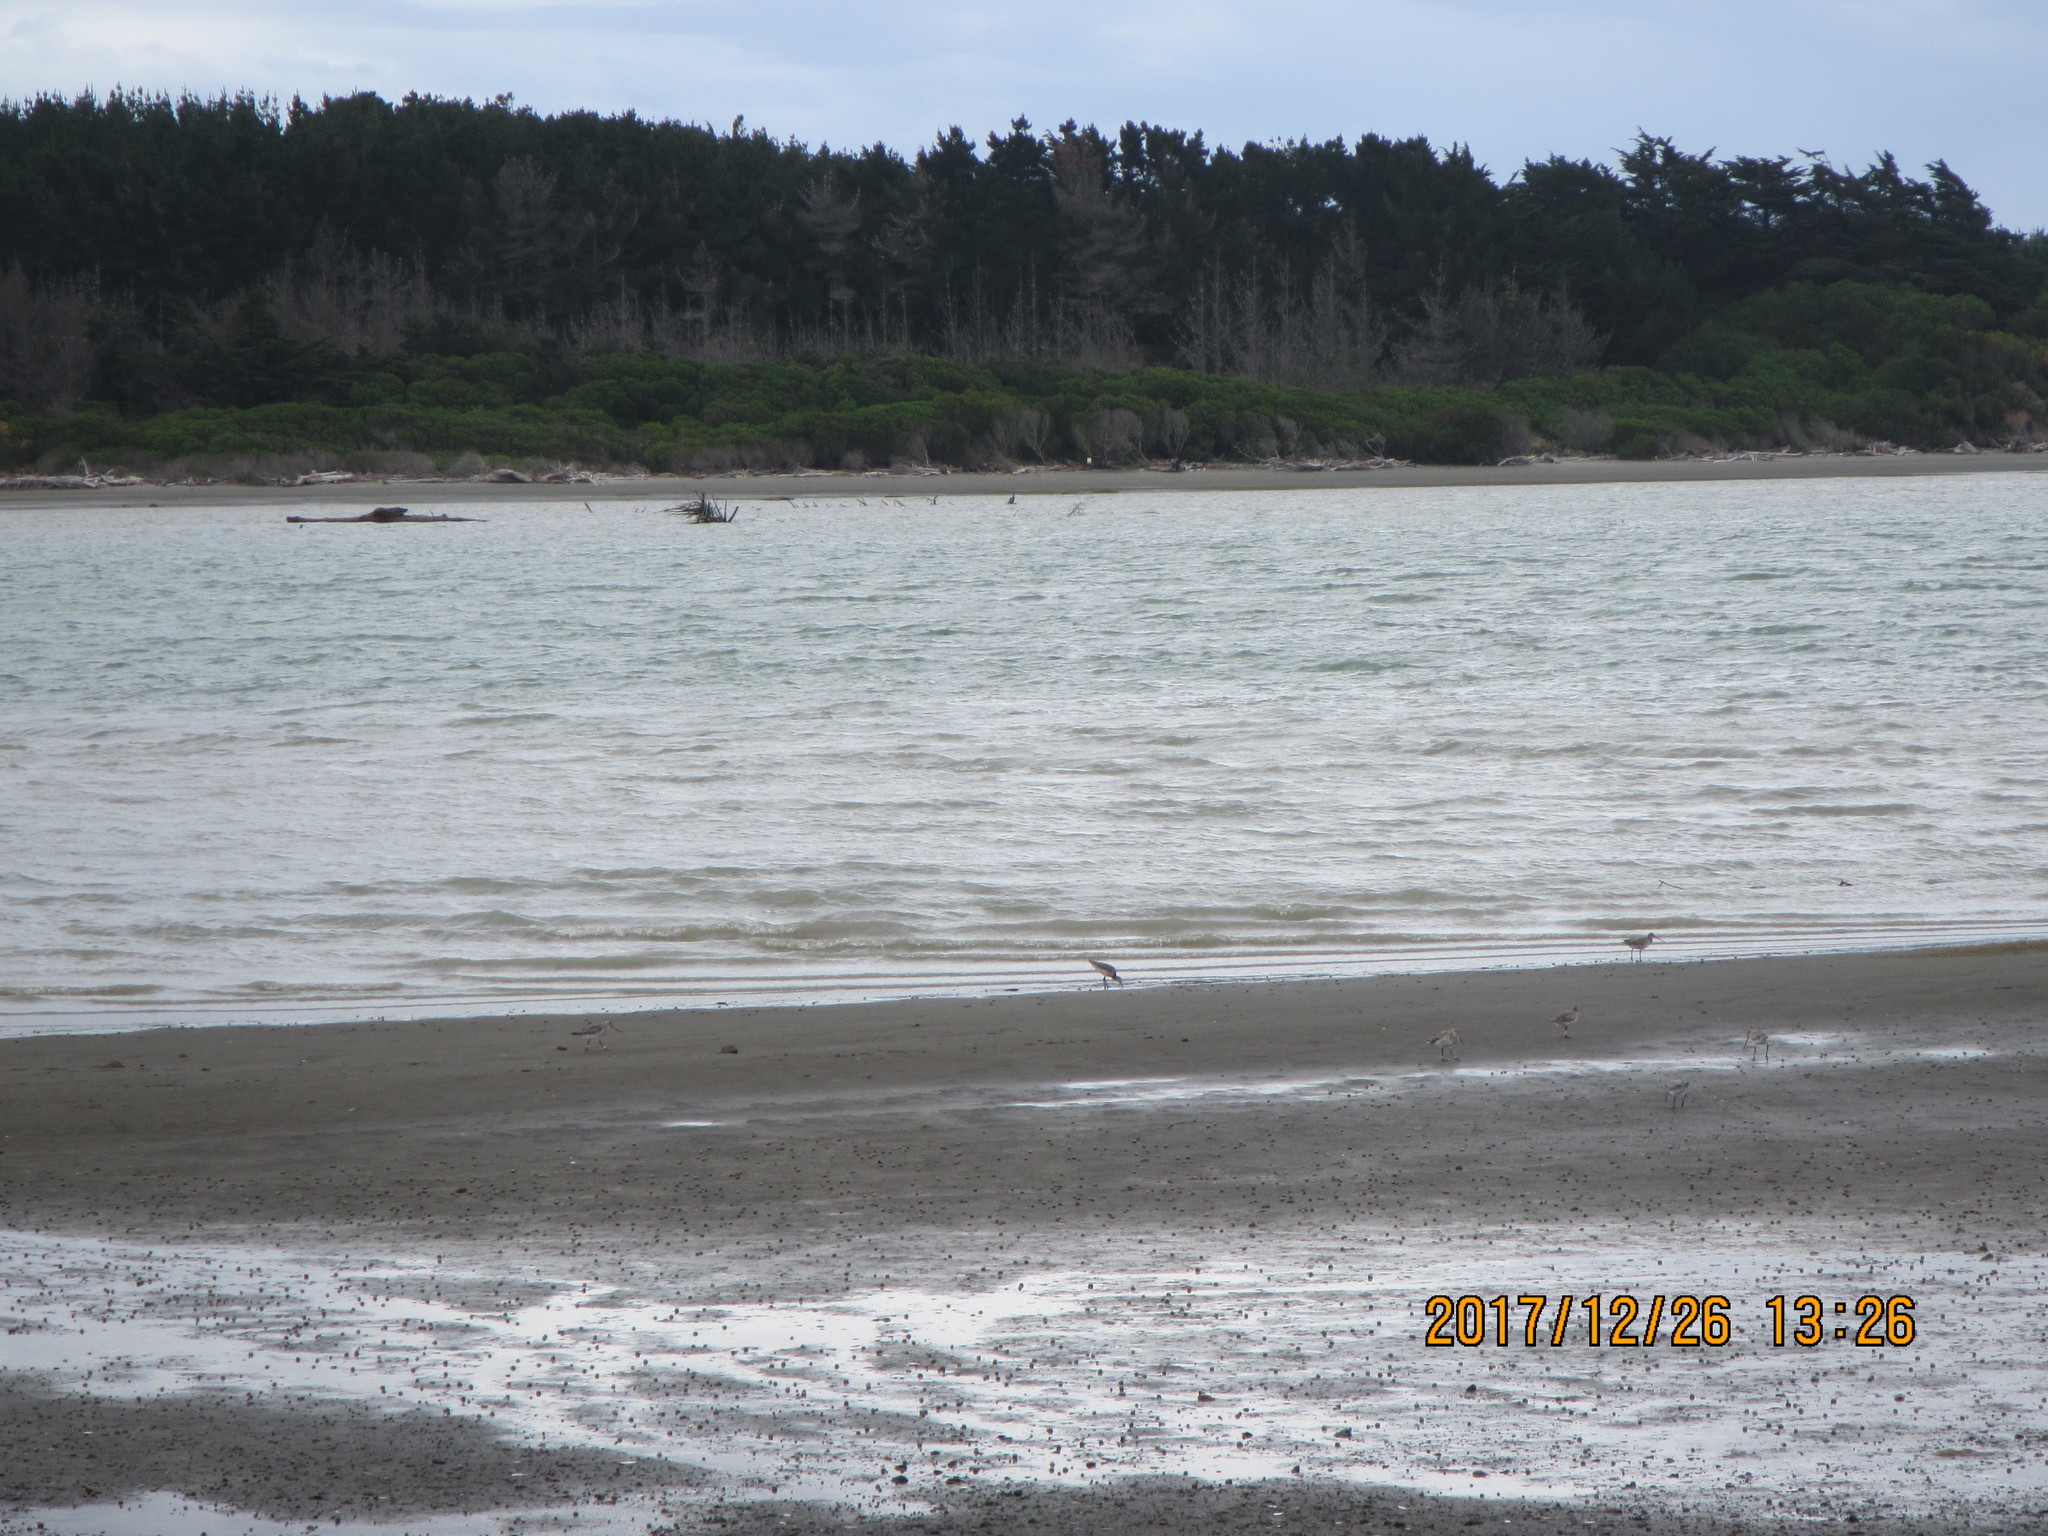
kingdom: Animalia
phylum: Chordata
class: Aves
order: Charadriiformes
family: Scolopacidae
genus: Limosa
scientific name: Limosa lapponica
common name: Bar-tailed godwit
